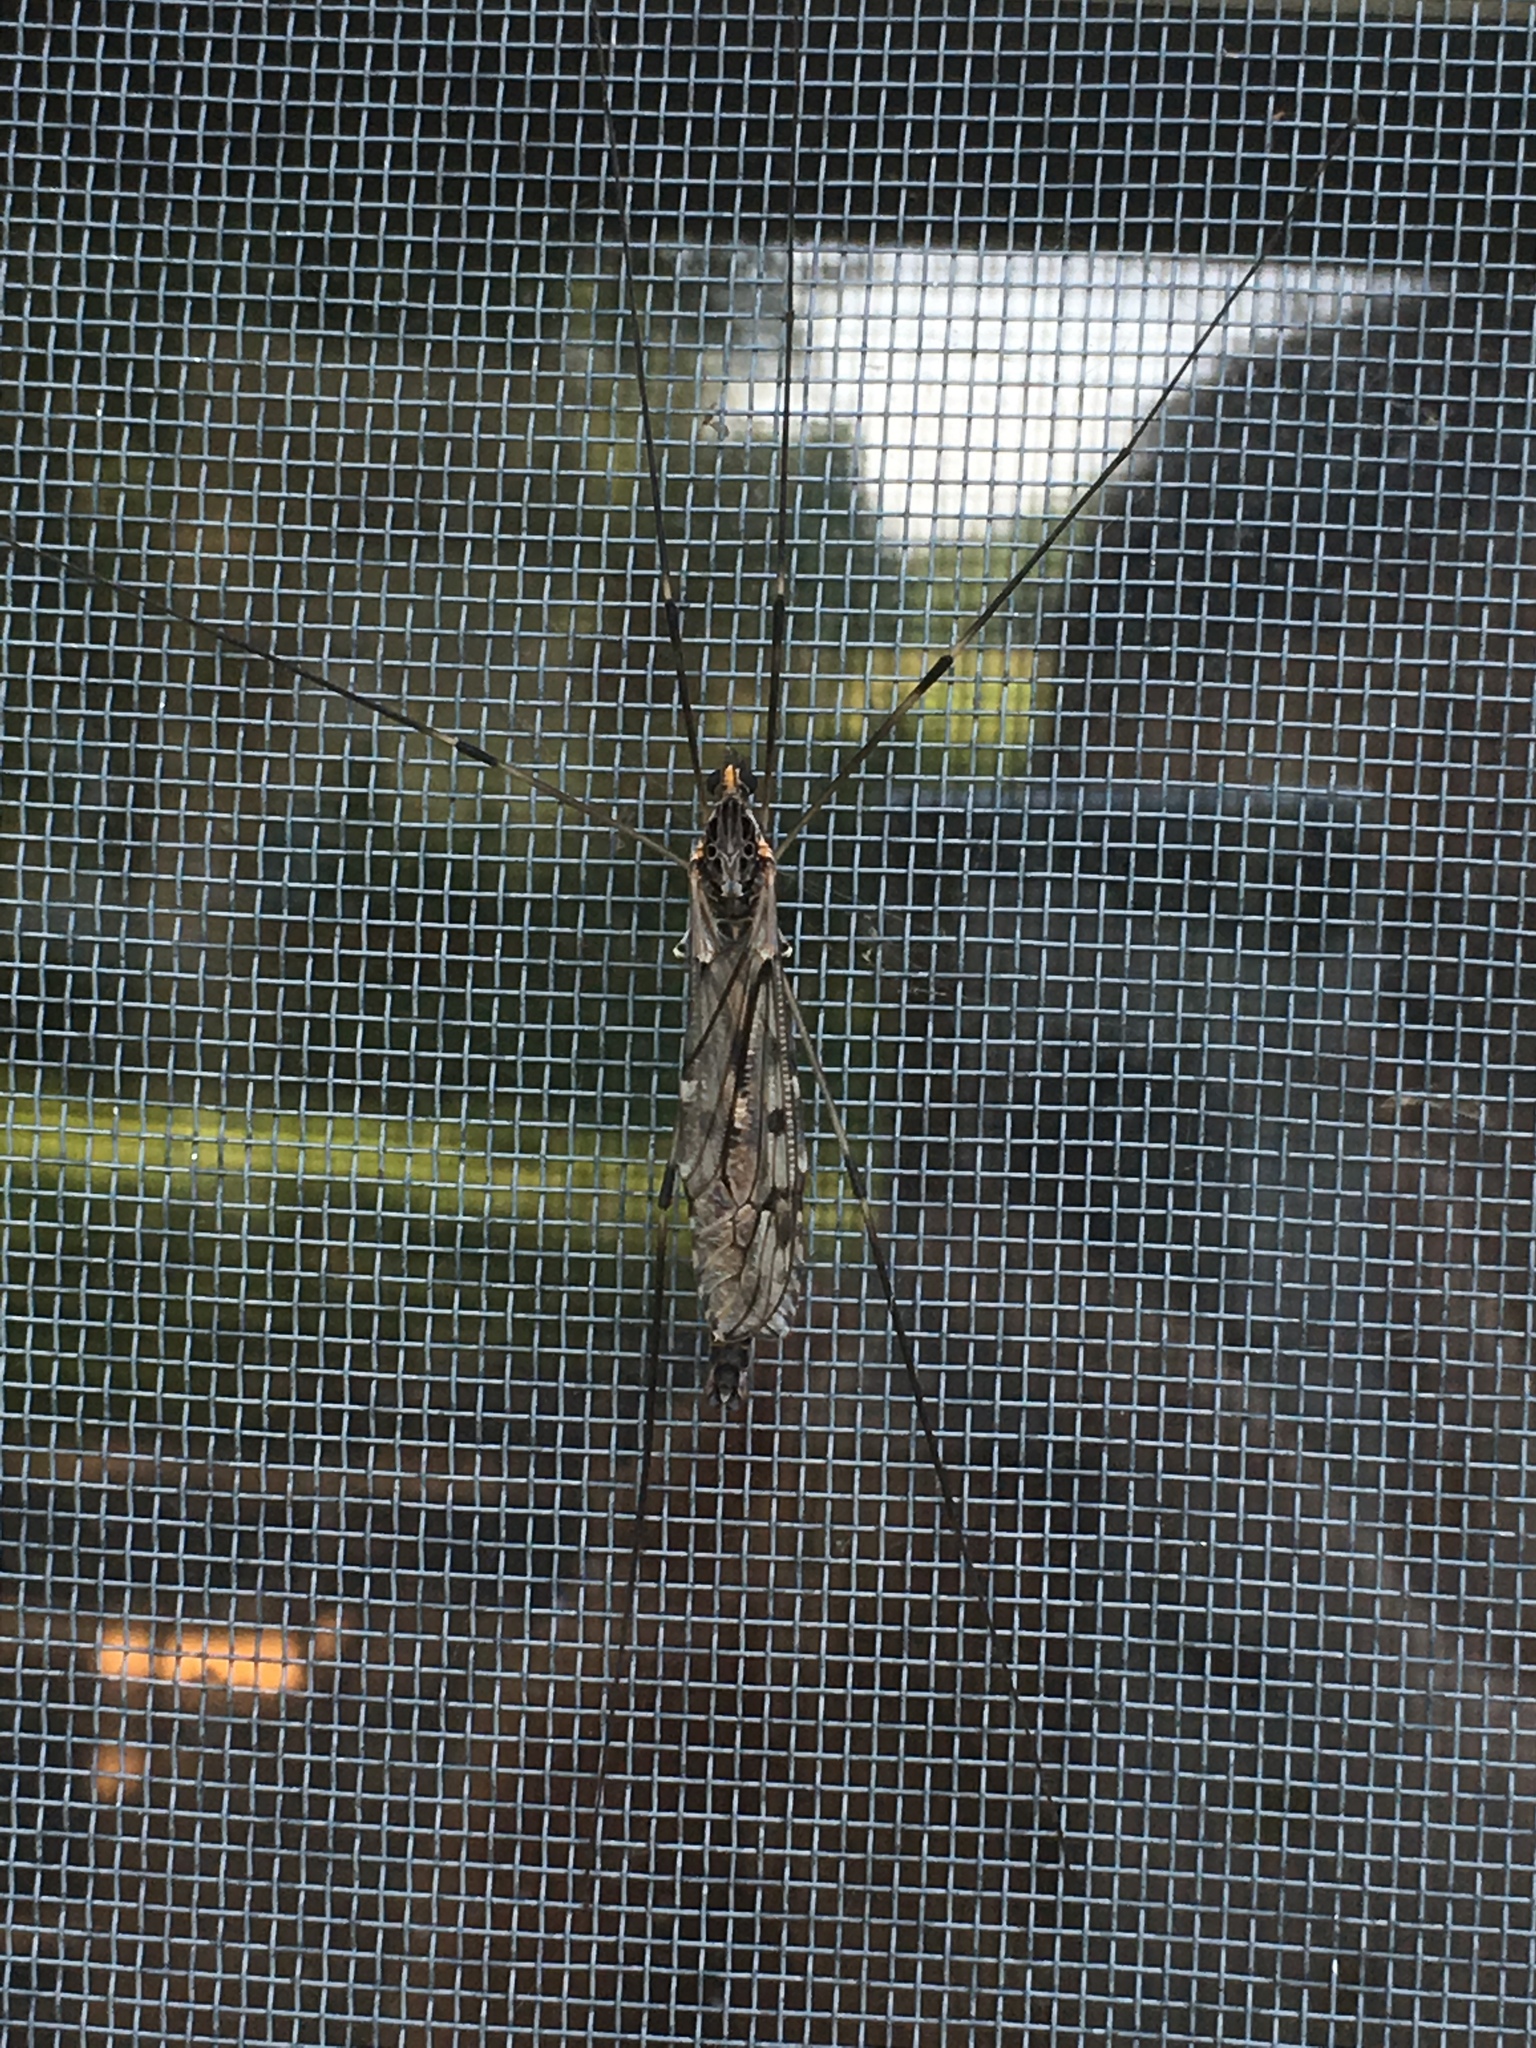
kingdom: Animalia
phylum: Arthropoda
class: Insecta
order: Diptera
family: Tipulidae
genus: Tipula
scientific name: Tipula abdominalis
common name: Giant crane fly
